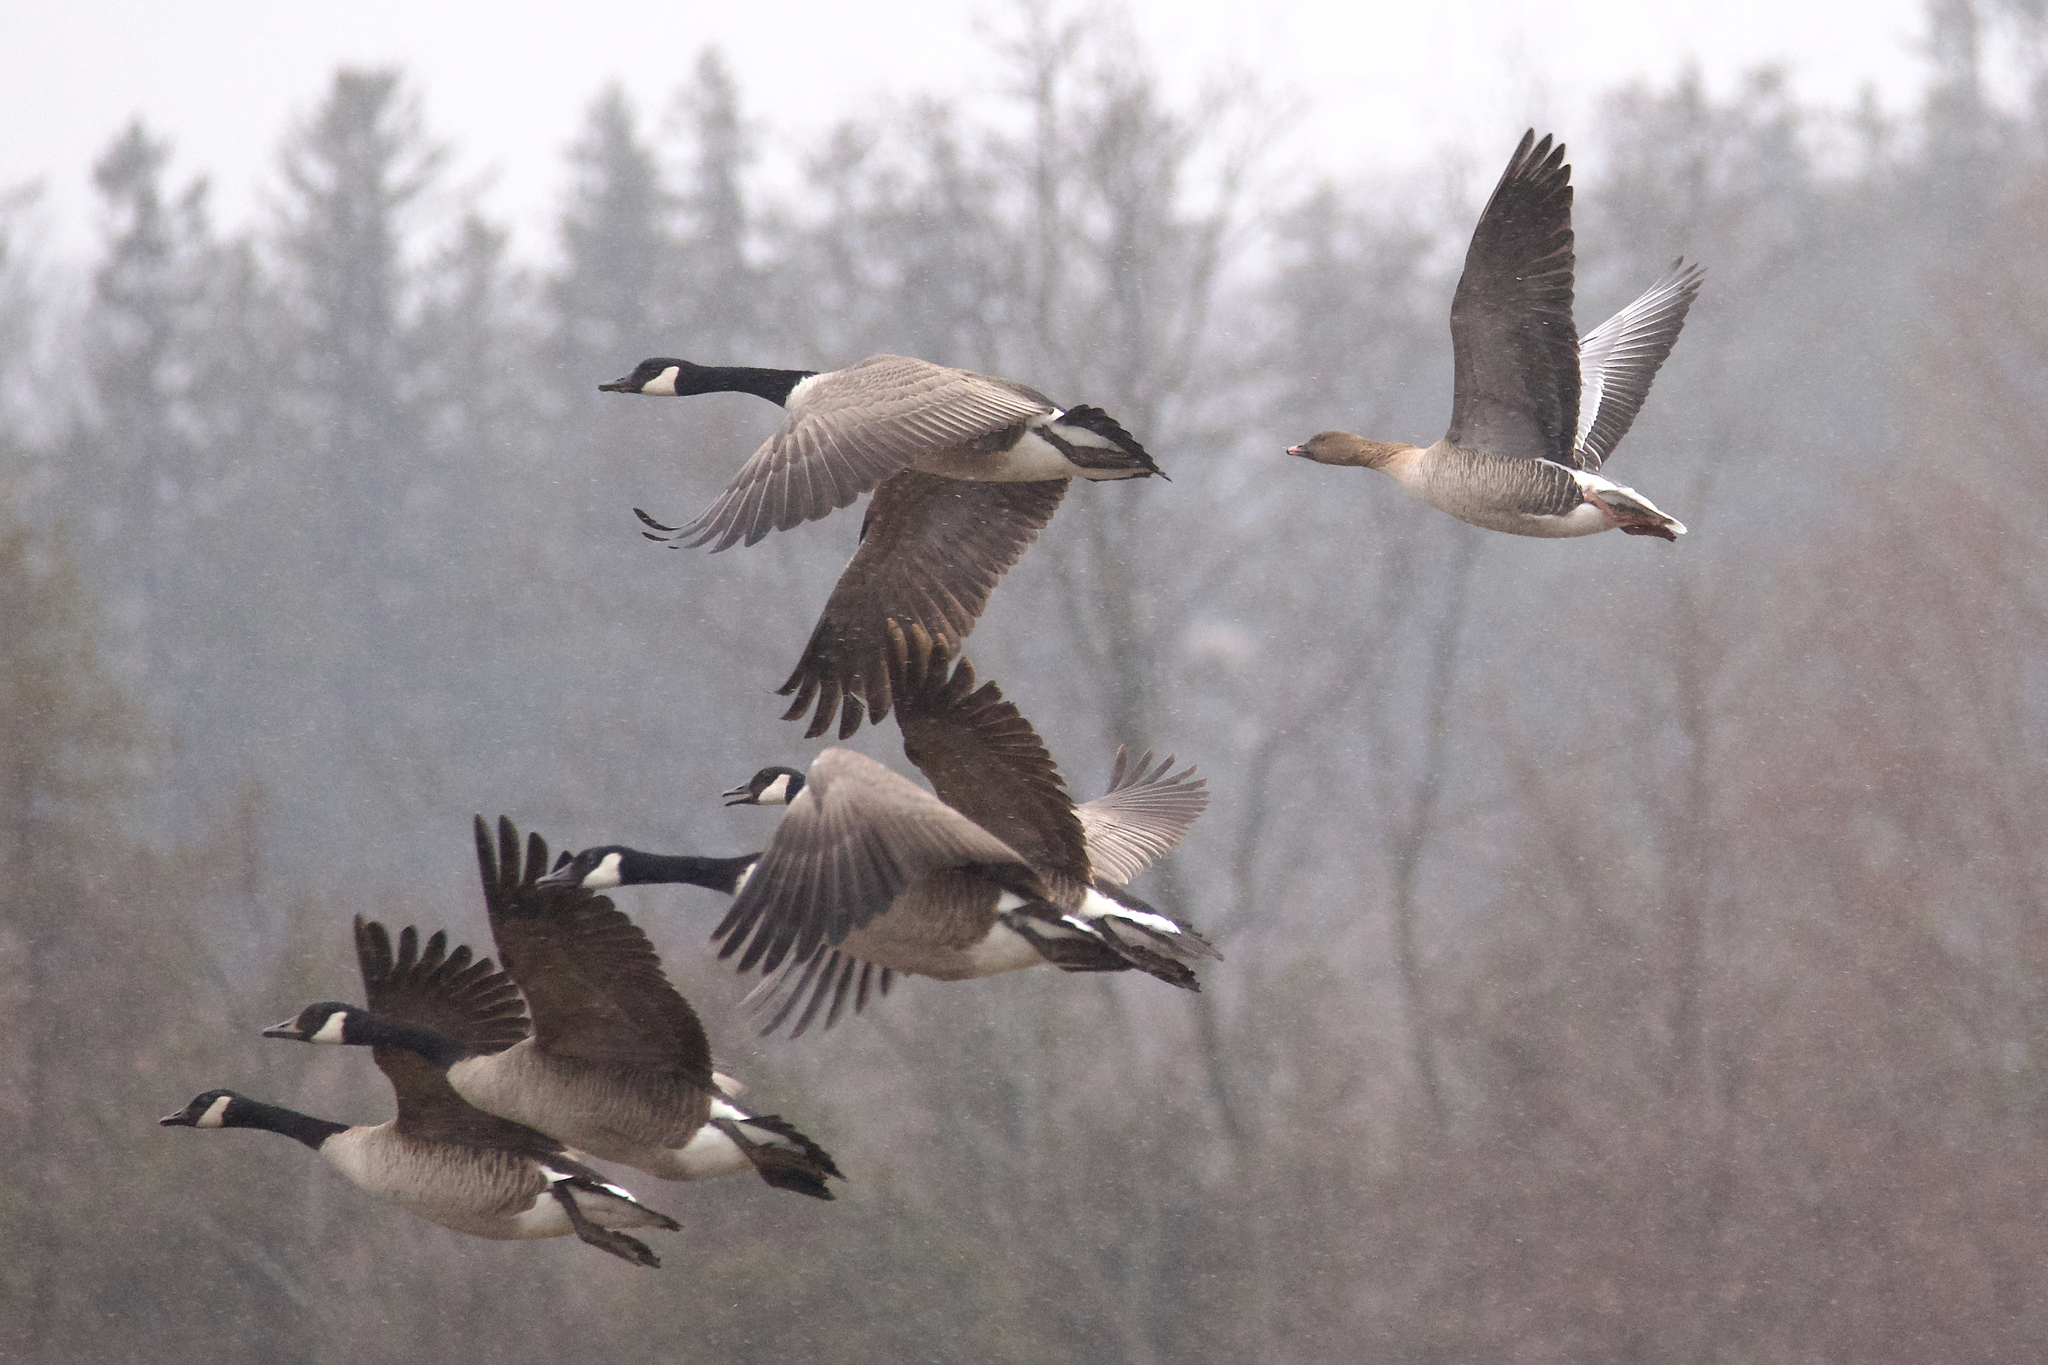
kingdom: Animalia
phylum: Chordata
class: Aves
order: Anseriformes
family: Anatidae
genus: Anser
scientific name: Anser brachyrhynchus
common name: Pink-footed goose
